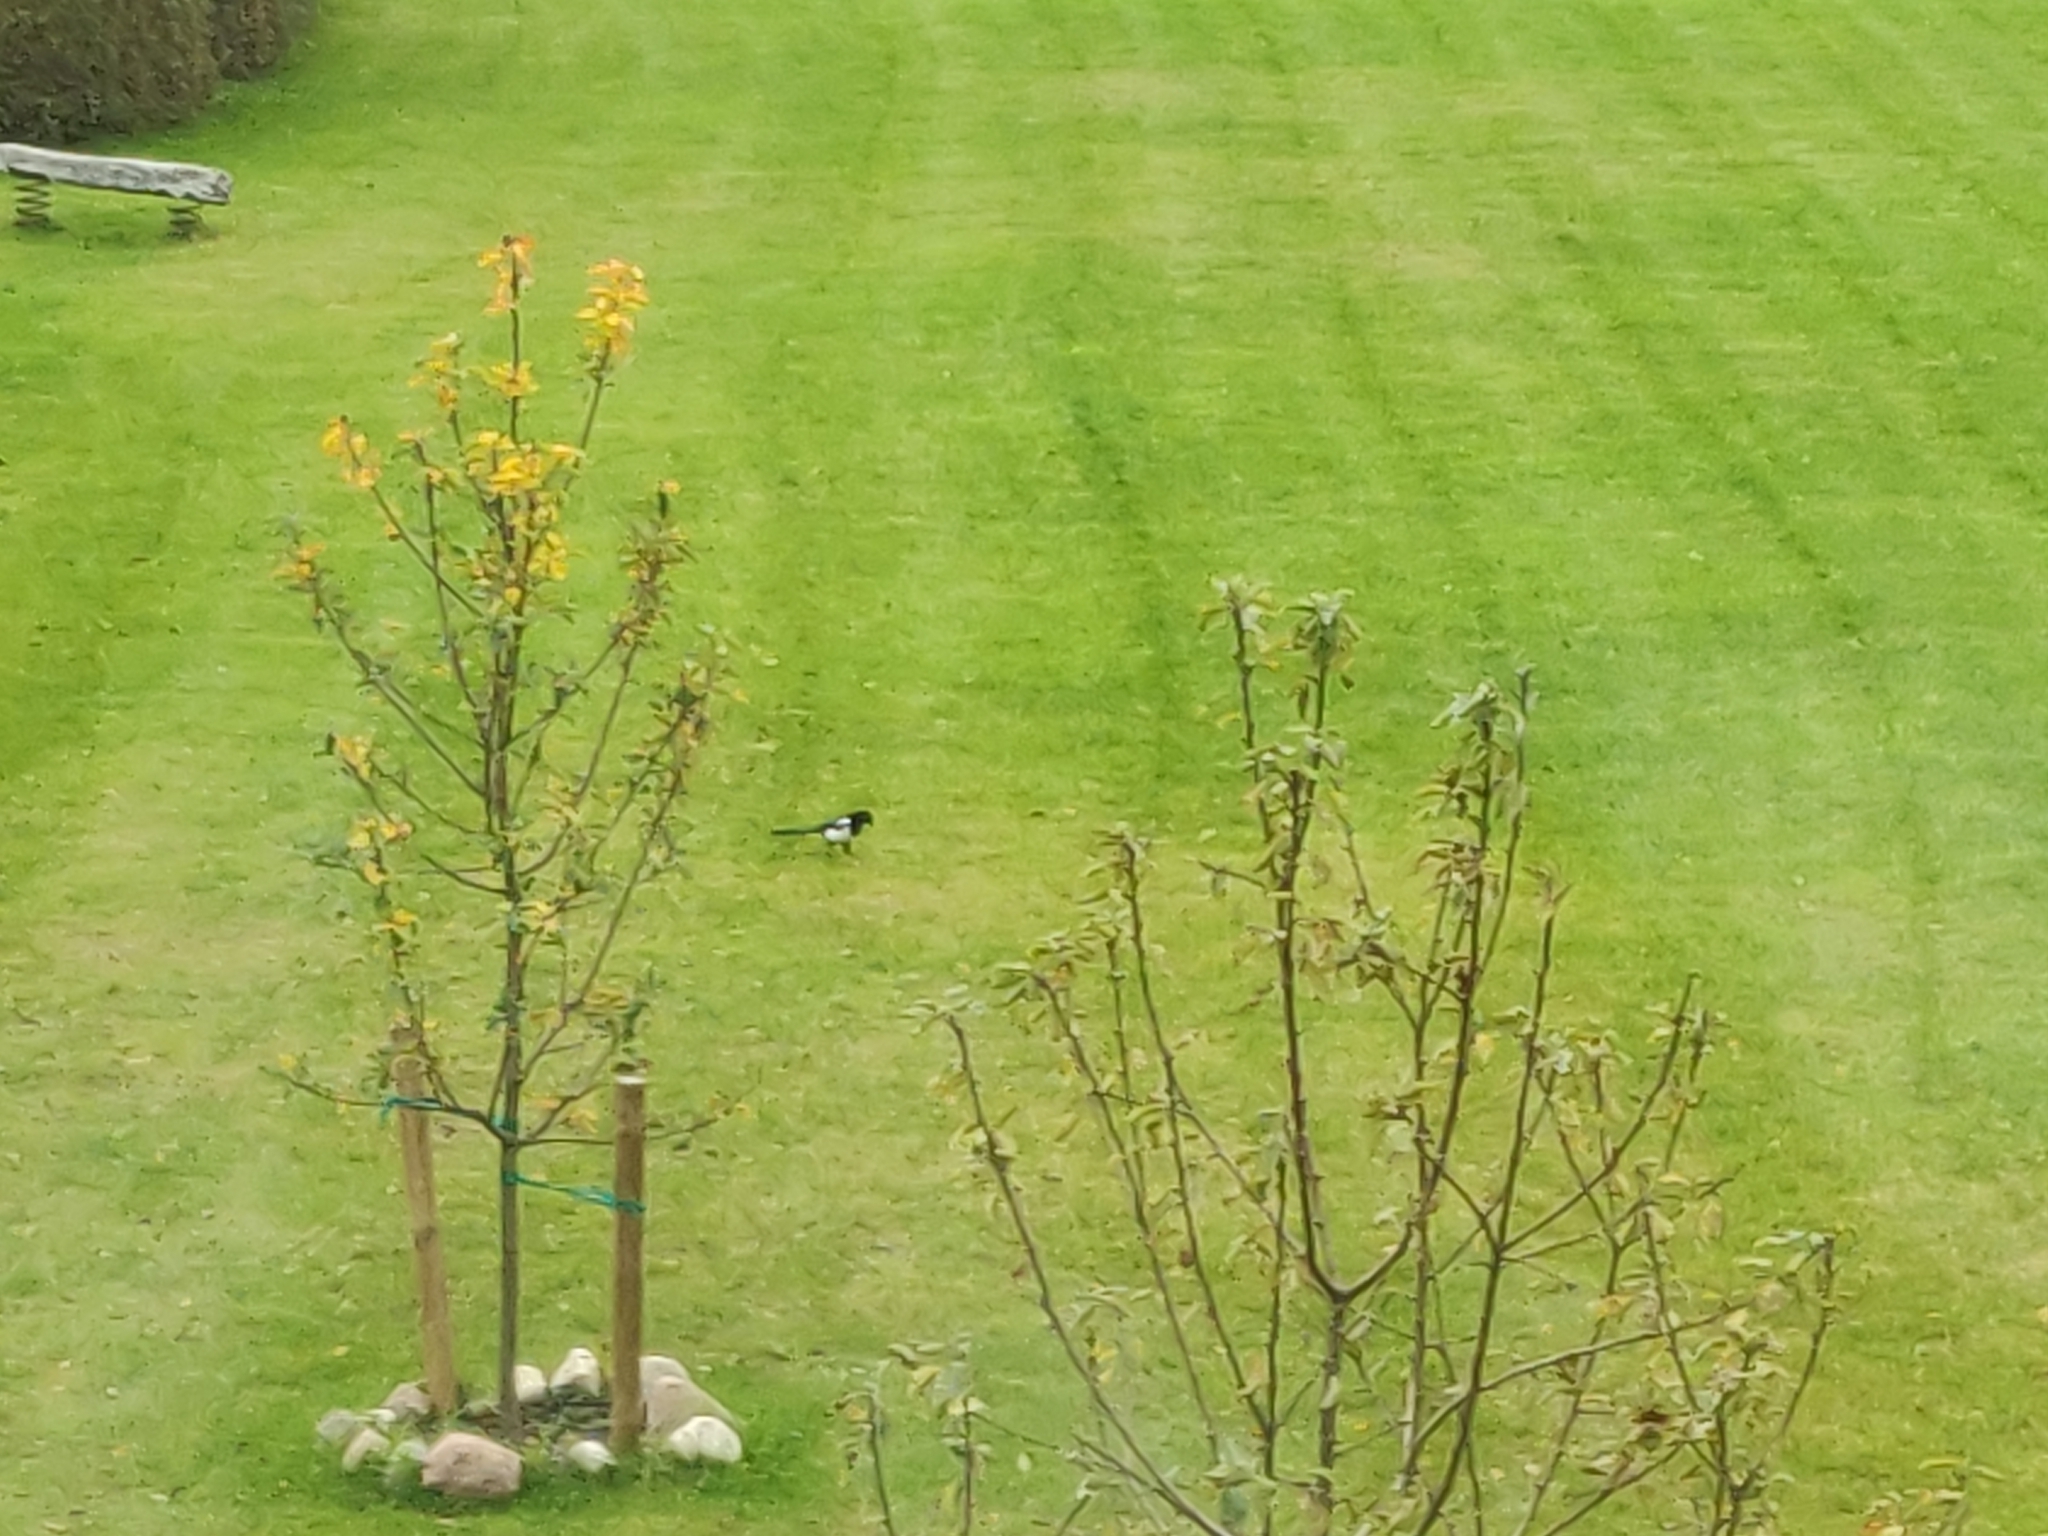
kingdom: Animalia
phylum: Chordata
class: Aves
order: Passeriformes
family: Corvidae
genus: Pica
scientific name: Pica pica
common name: Eurasian magpie
